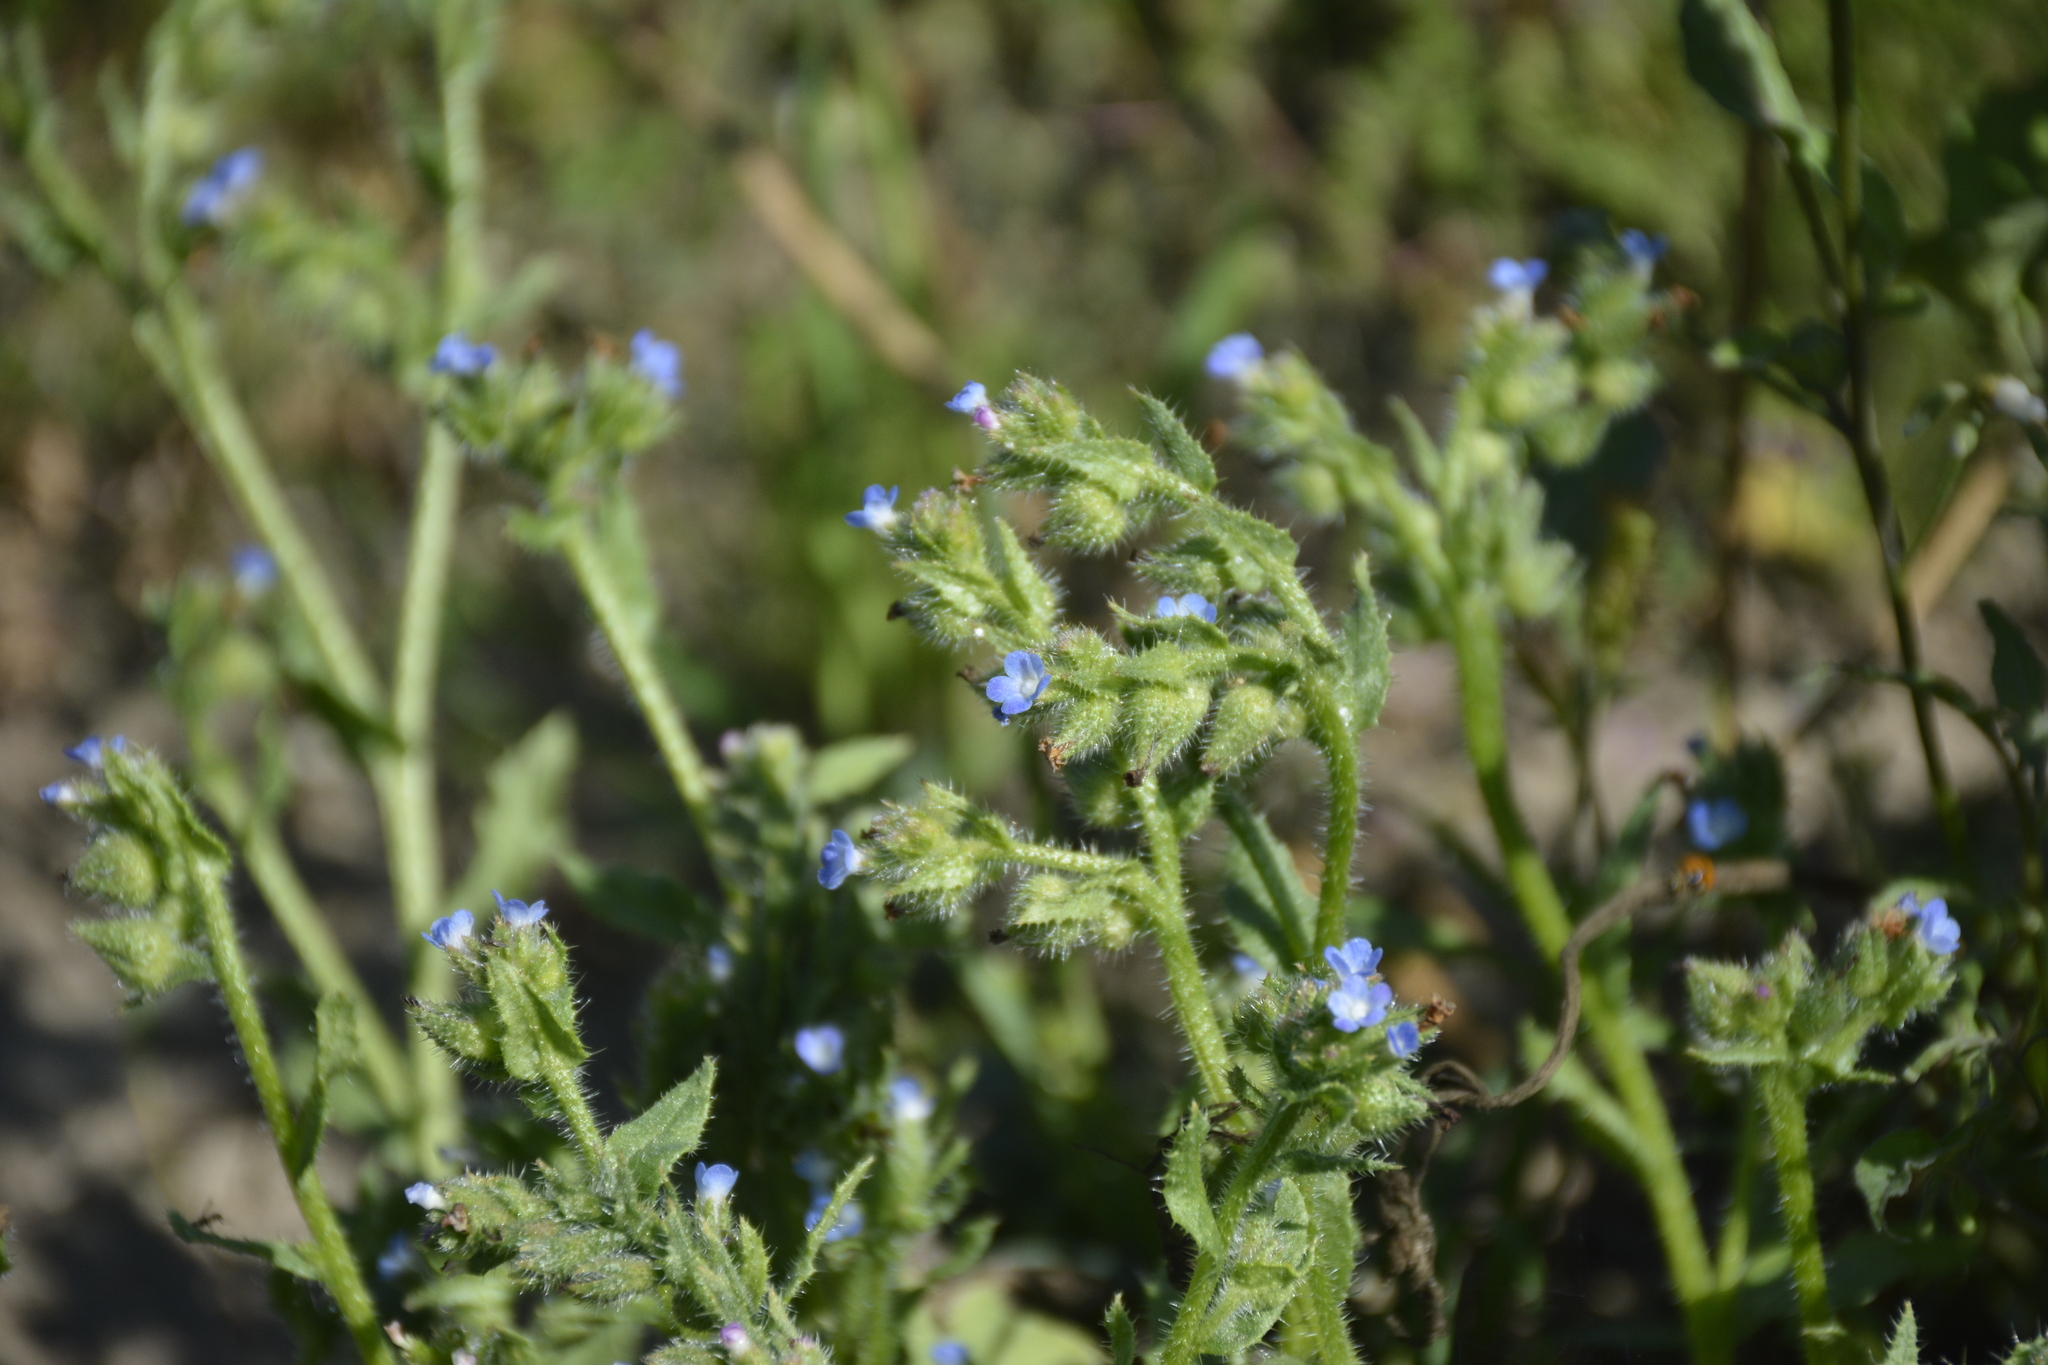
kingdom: Plantae
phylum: Tracheophyta
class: Magnoliopsida
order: Boraginales
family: Boraginaceae
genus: Lycopsis
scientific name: Lycopsis arvensis
